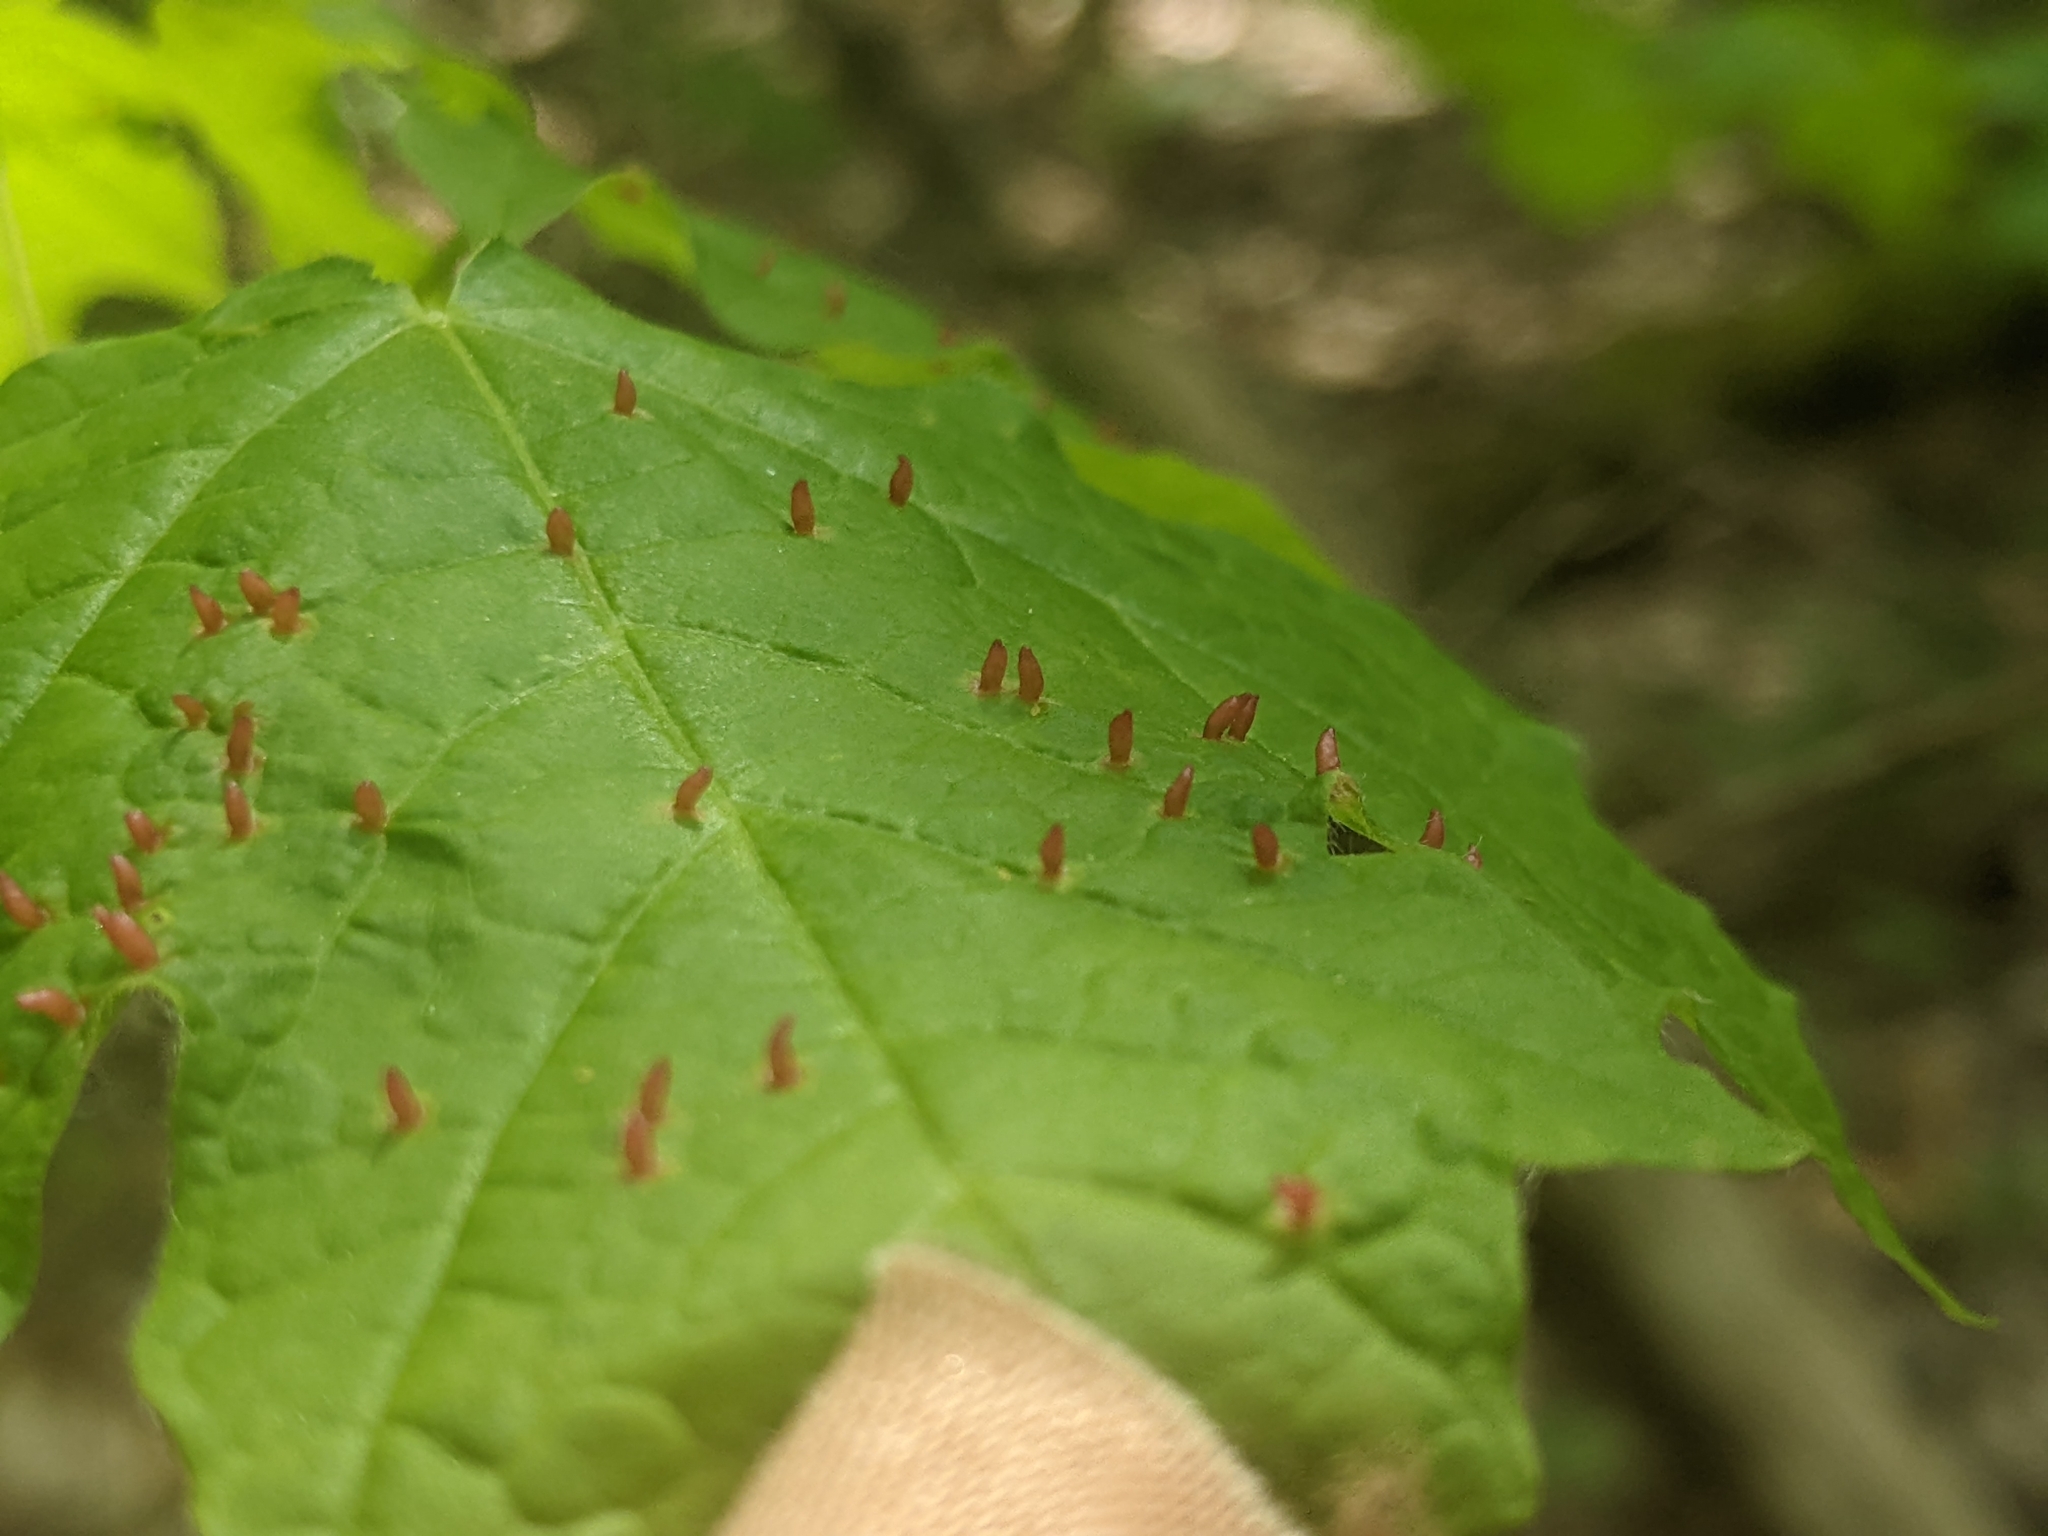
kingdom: Animalia
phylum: Arthropoda
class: Arachnida
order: Trombidiformes
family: Eriophyidae
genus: Vasates
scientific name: Vasates aceriscrumena
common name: Maple spindle gall mite
